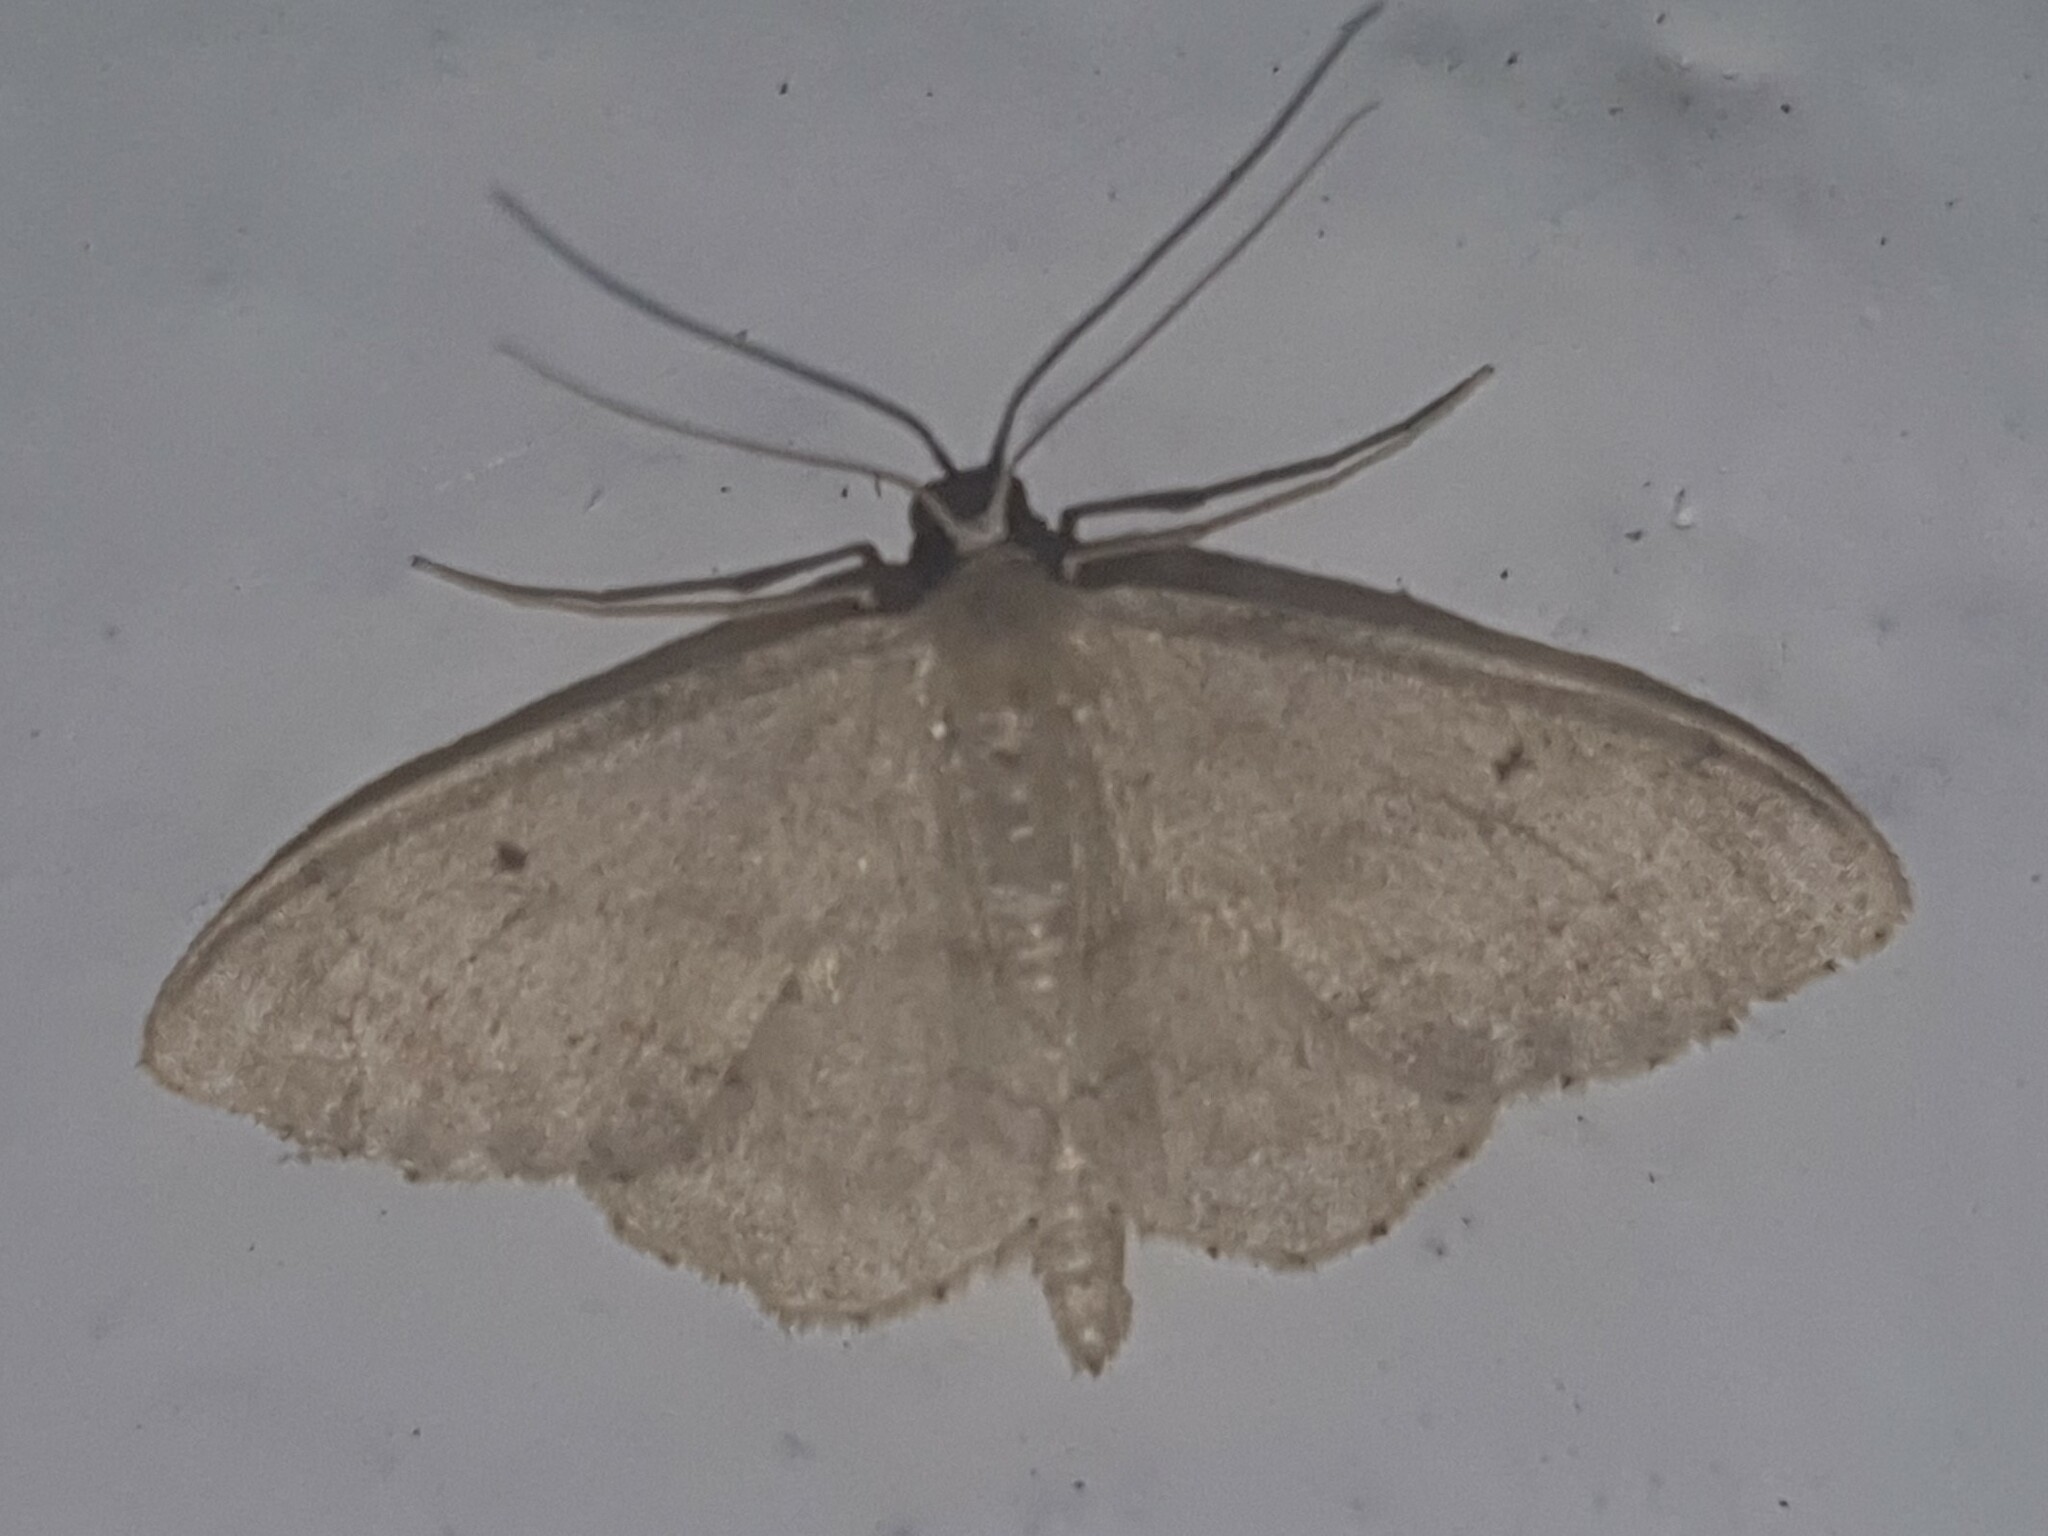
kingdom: Animalia
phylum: Arthropoda
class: Insecta
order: Lepidoptera
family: Geometridae
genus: Idaea
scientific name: Idaea biselata
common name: Small fan-footed wave
